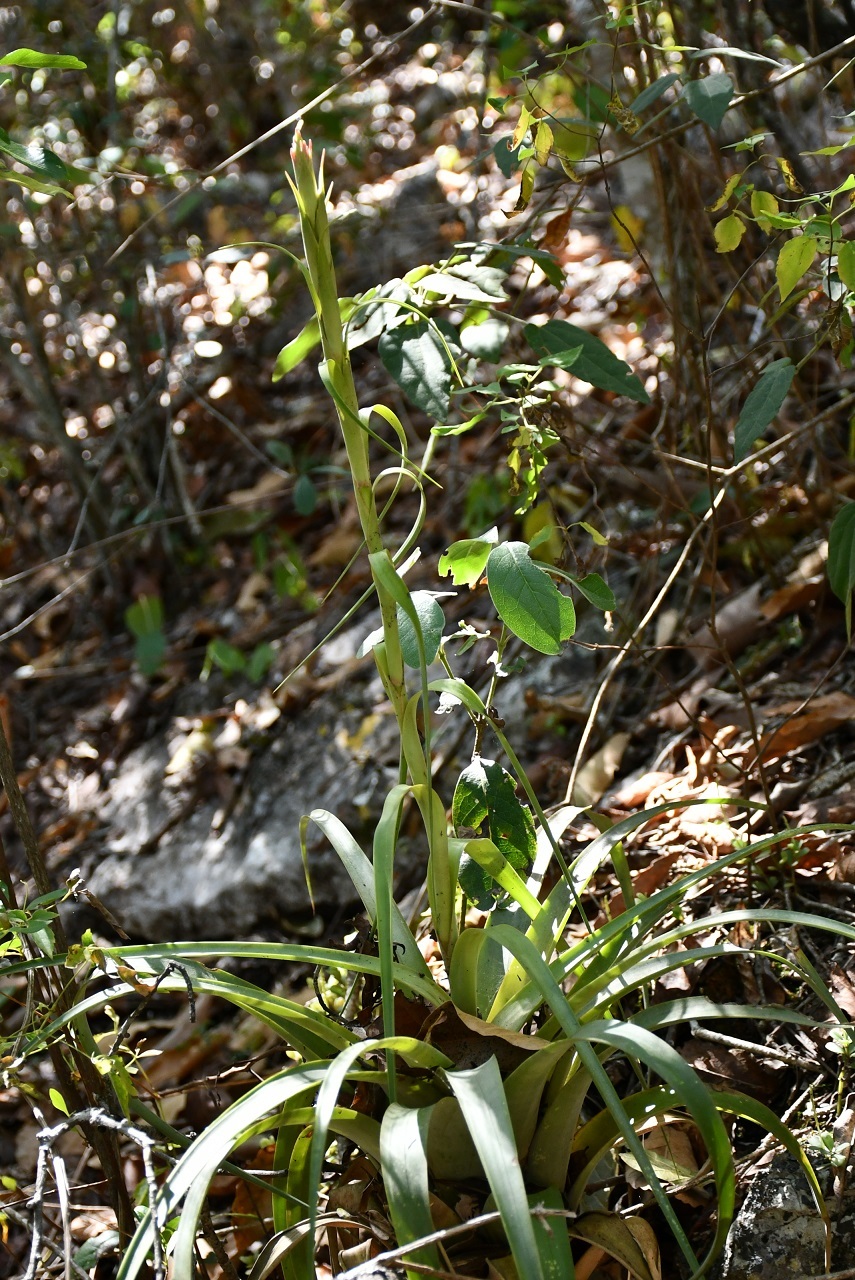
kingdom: Plantae
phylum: Tracheophyta
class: Liliopsida
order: Poales
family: Bromeliaceae
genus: Tillandsia
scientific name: Tillandsia belloensis
